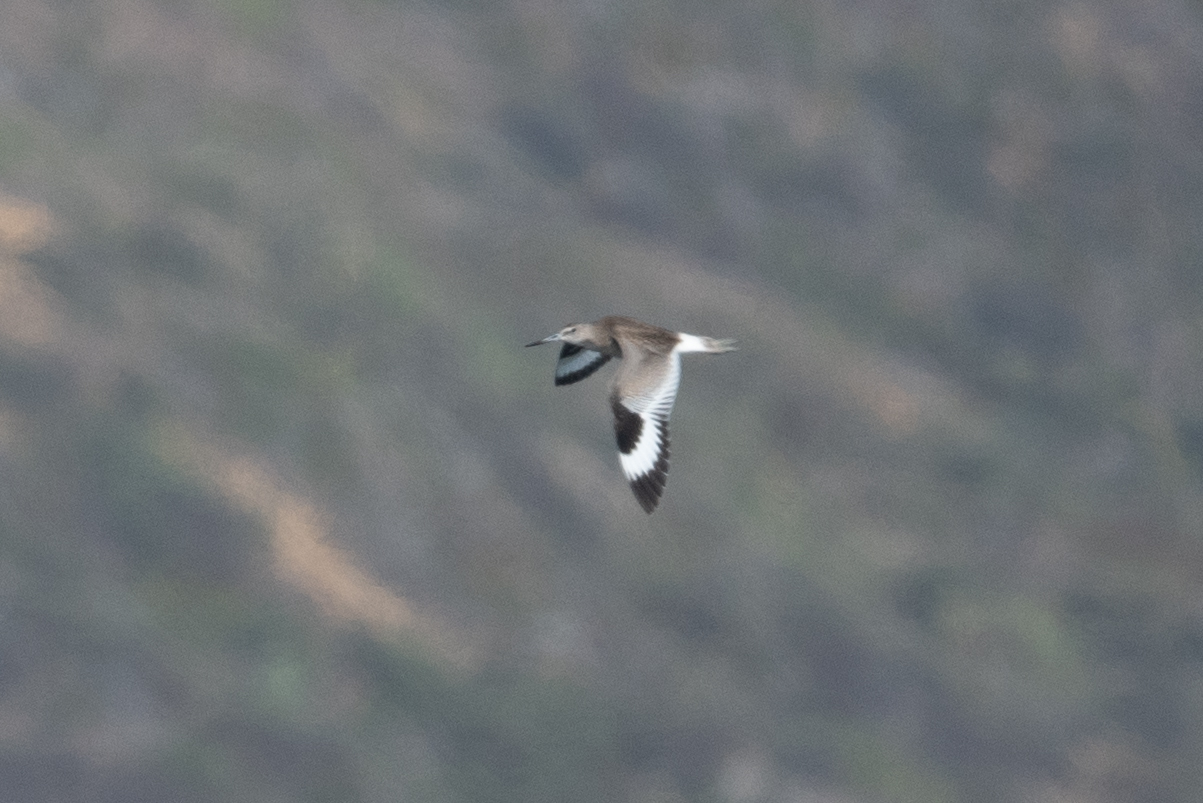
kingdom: Animalia
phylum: Chordata
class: Aves
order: Charadriiformes
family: Scolopacidae
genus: Tringa
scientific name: Tringa semipalmata
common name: Willet
